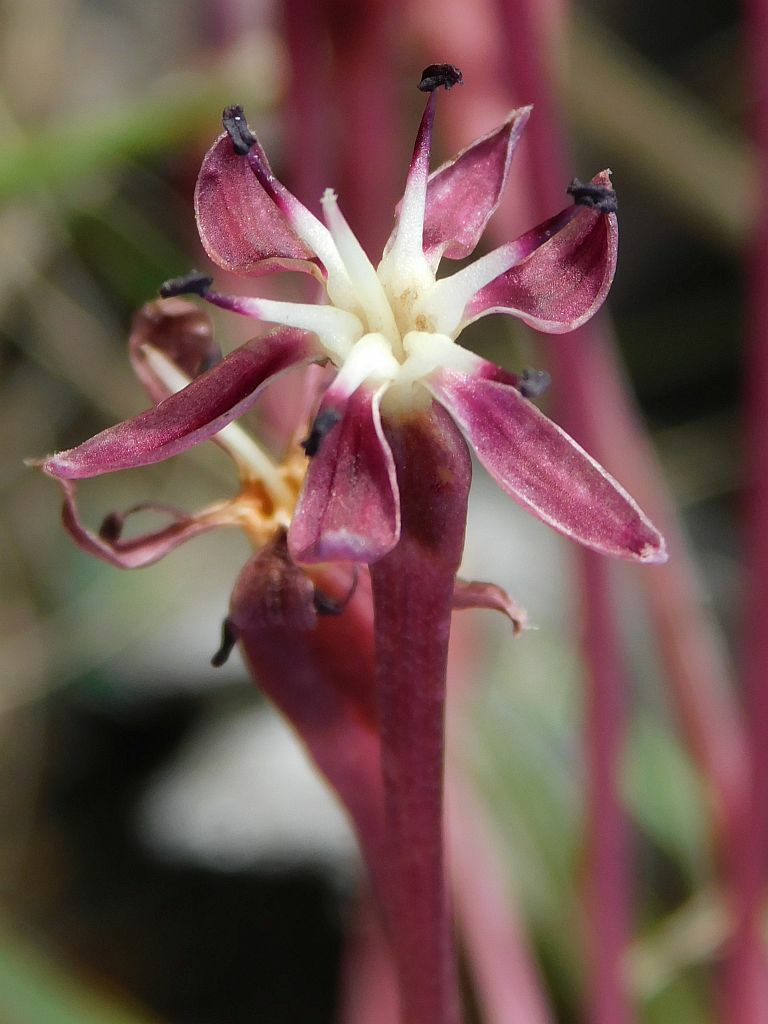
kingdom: Plantae
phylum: Tracheophyta
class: Liliopsida
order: Asparagales
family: Amaryllidaceae
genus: Crossyne
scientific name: Crossyne guttata
